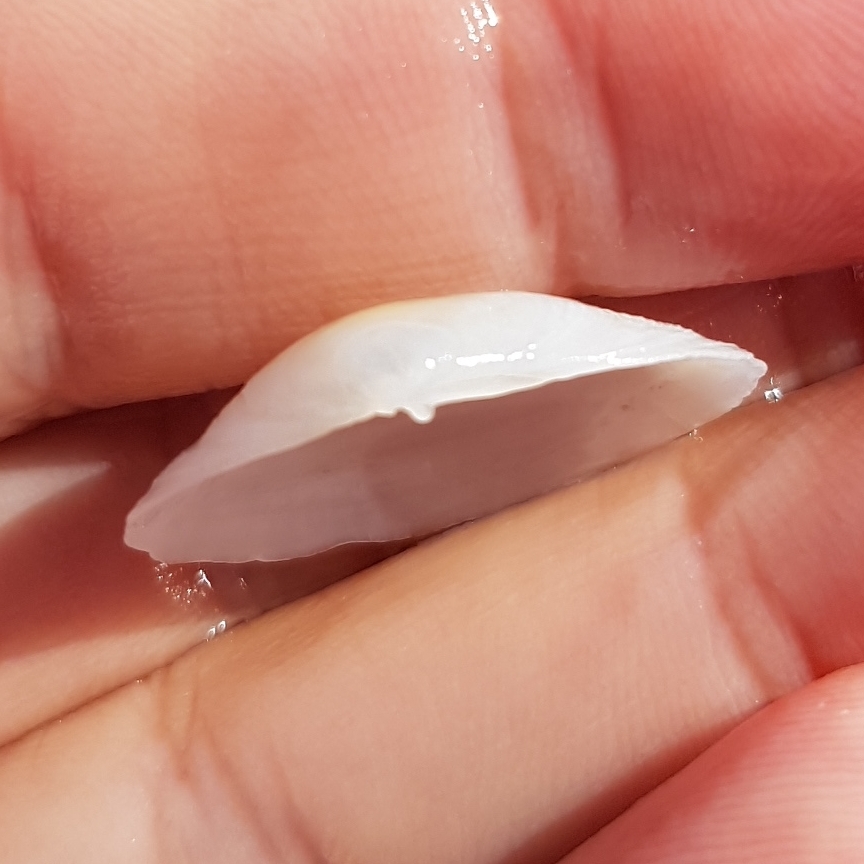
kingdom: Animalia
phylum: Mollusca
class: Bivalvia
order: Cardiida
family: Tellinidae
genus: Gastrana
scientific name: Gastrana fragilis
